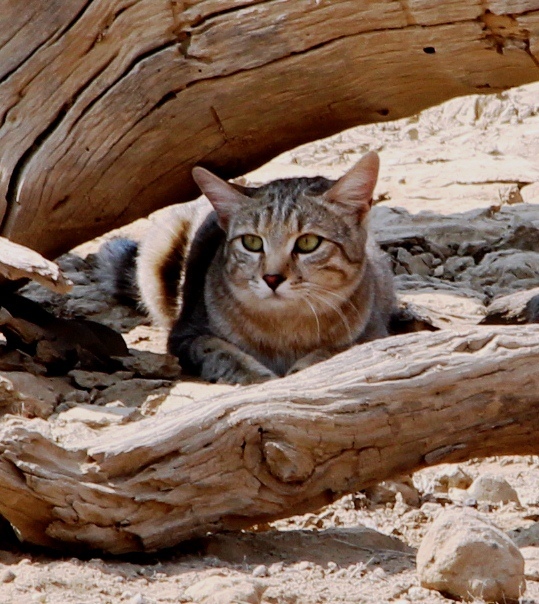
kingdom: Animalia
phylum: Chordata
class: Mammalia
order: Carnivora
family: Felidae
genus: Felis
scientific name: Felis silvestris
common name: Wildcat
